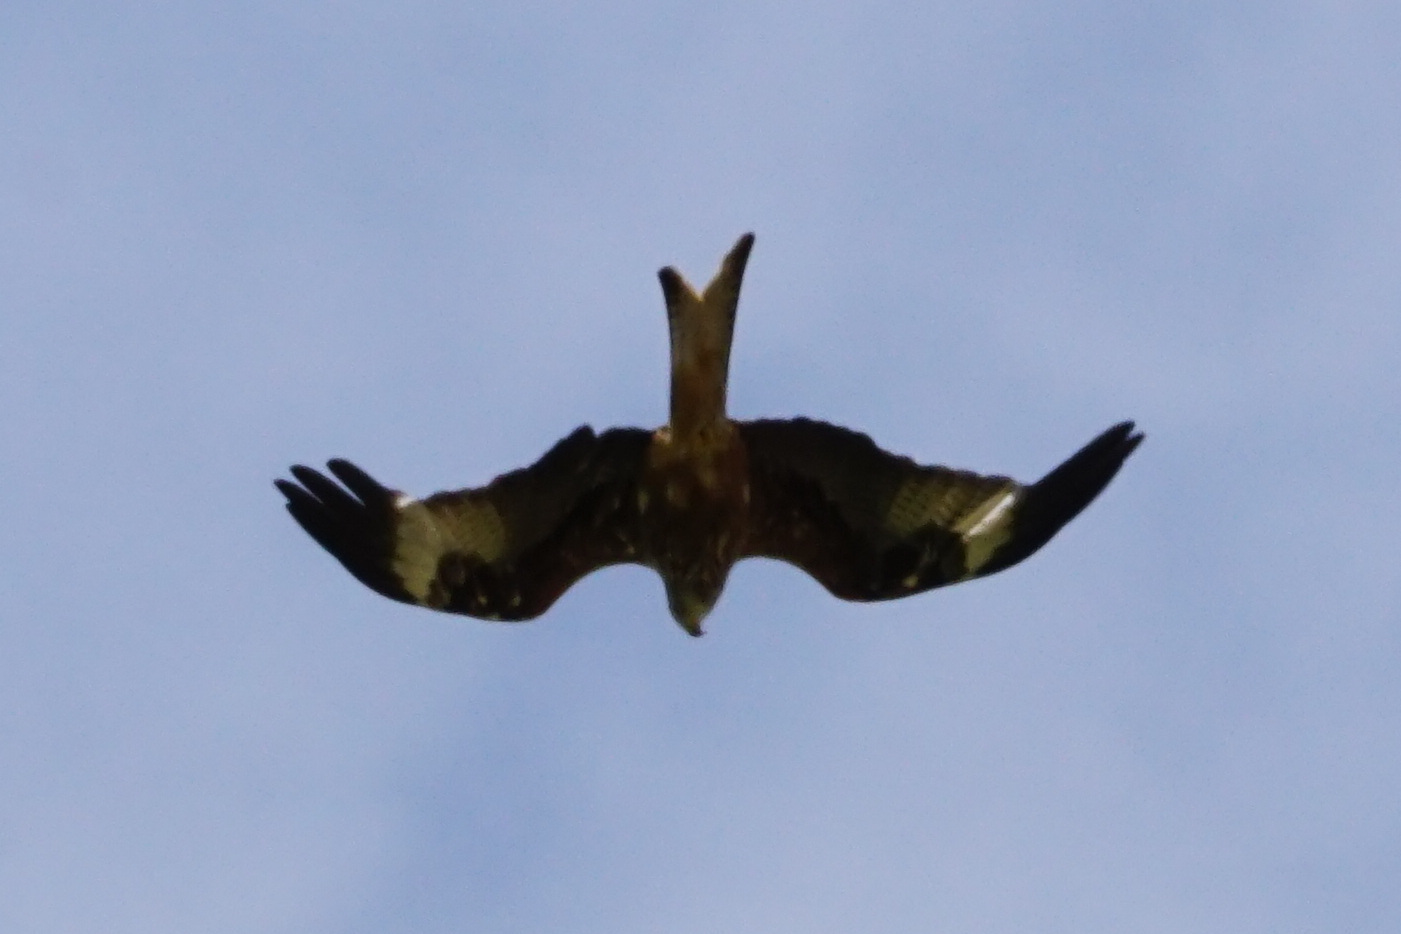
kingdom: Animalia
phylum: Chordata
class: Aves
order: Accipitriformes
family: Accipitridae
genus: Milvus
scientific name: Milvus milvus
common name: Red kite
